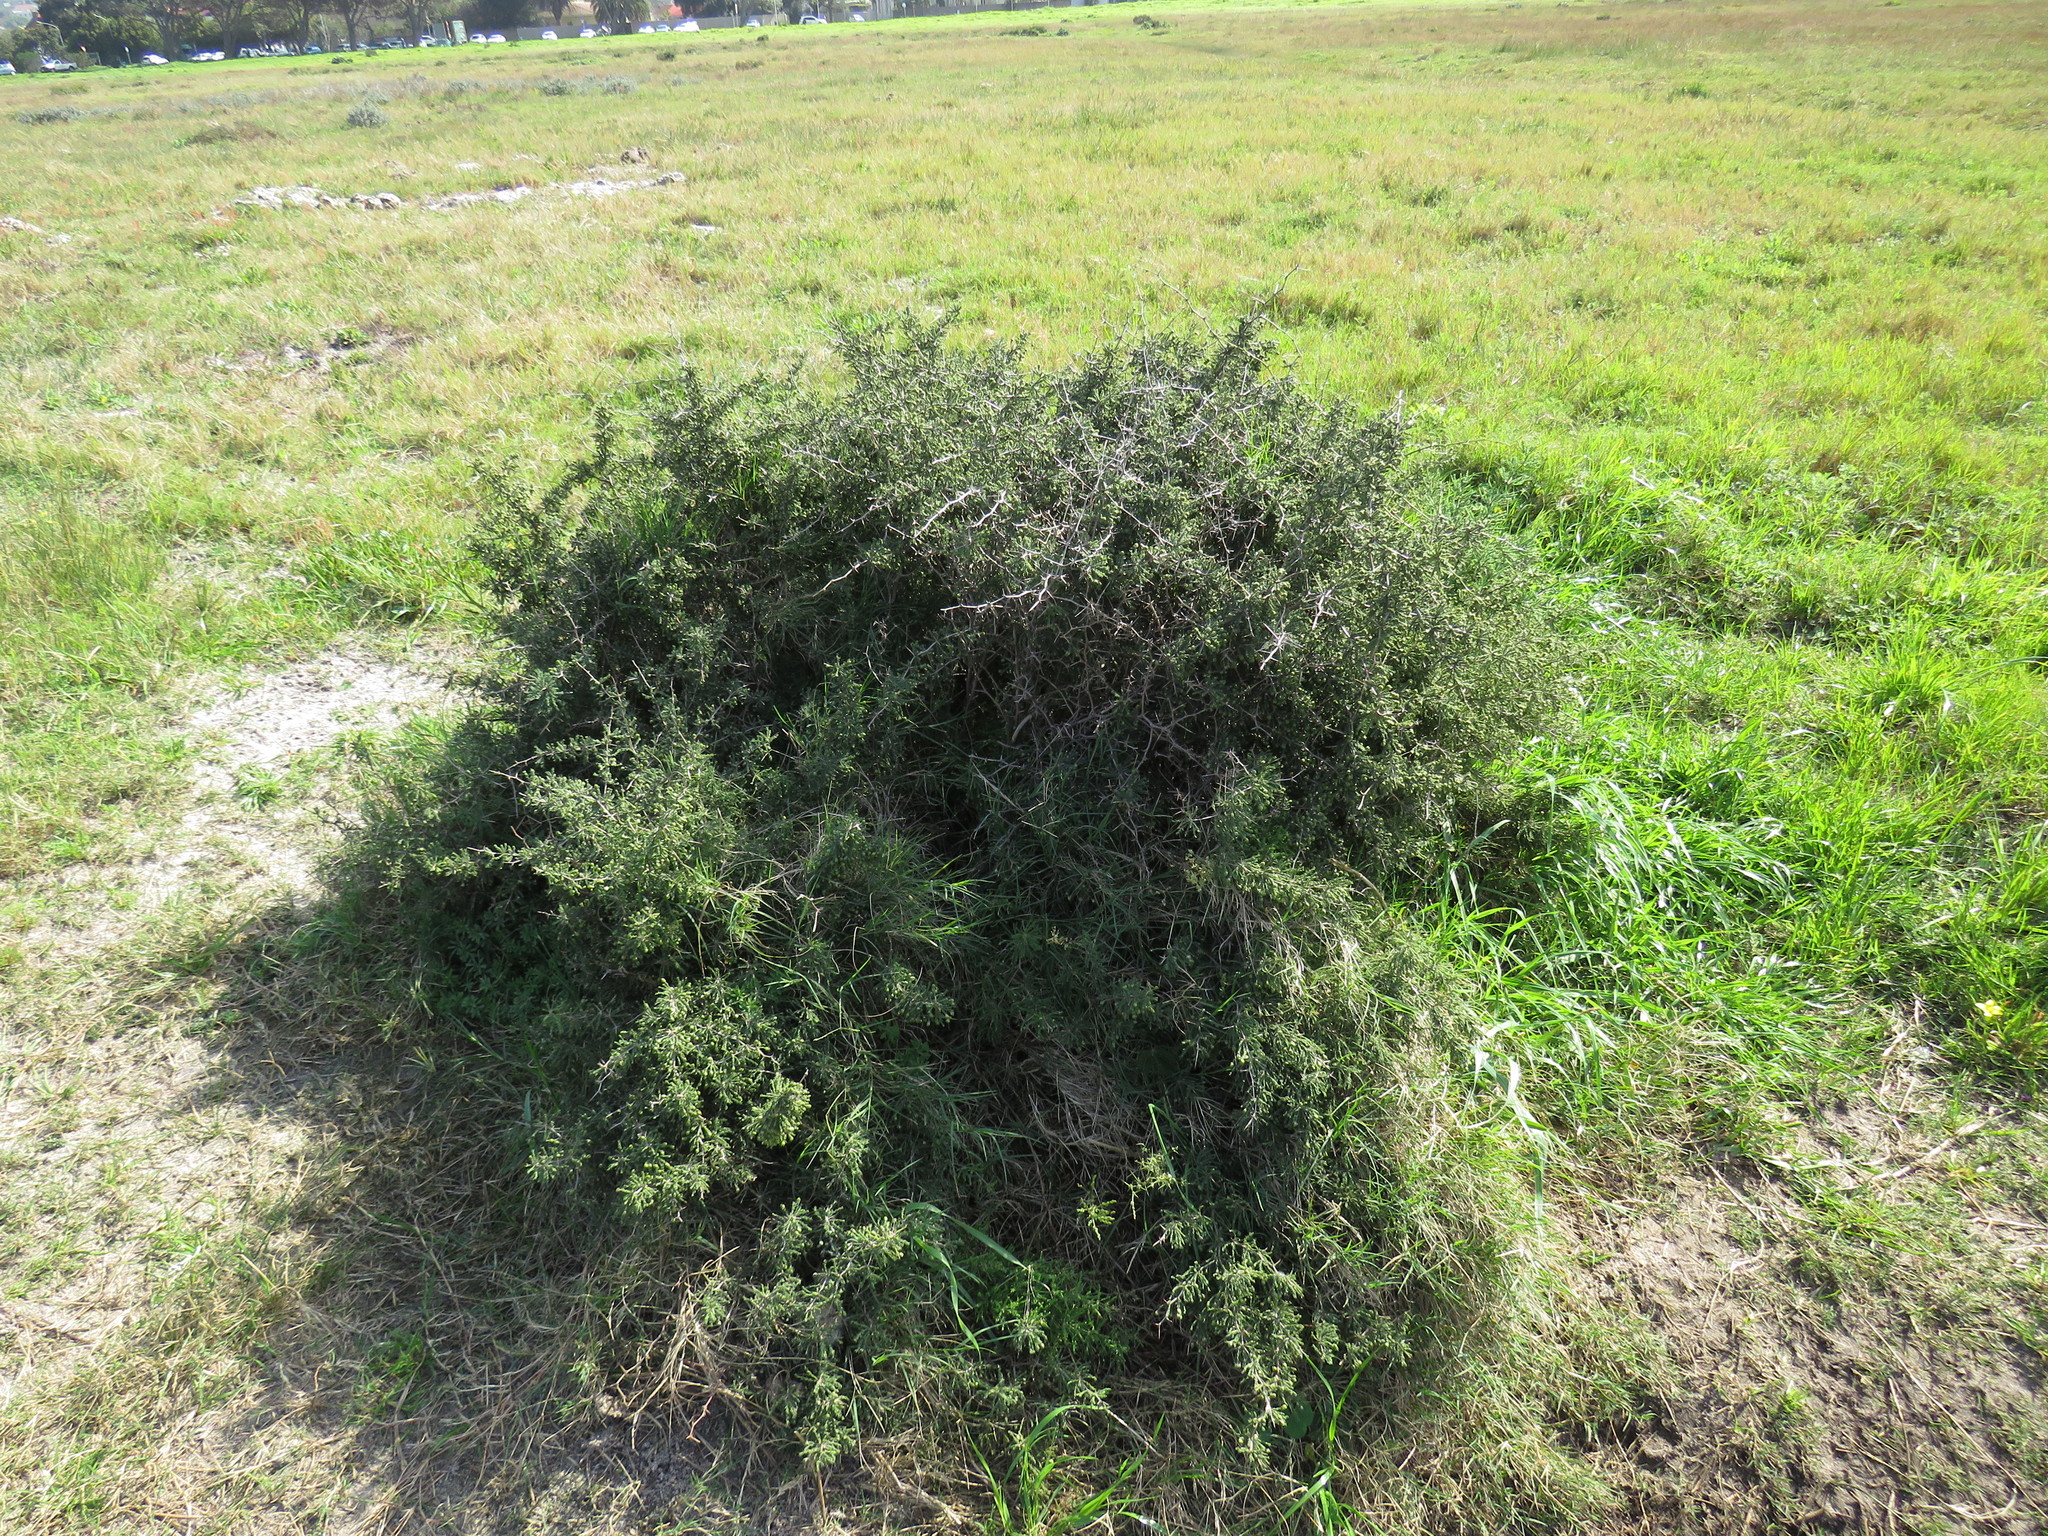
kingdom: Plantae
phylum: Tracheophyta
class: Liliopsida
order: Asparagales
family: Asparagaceae
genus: Asparagus
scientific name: Asparagus capensis
